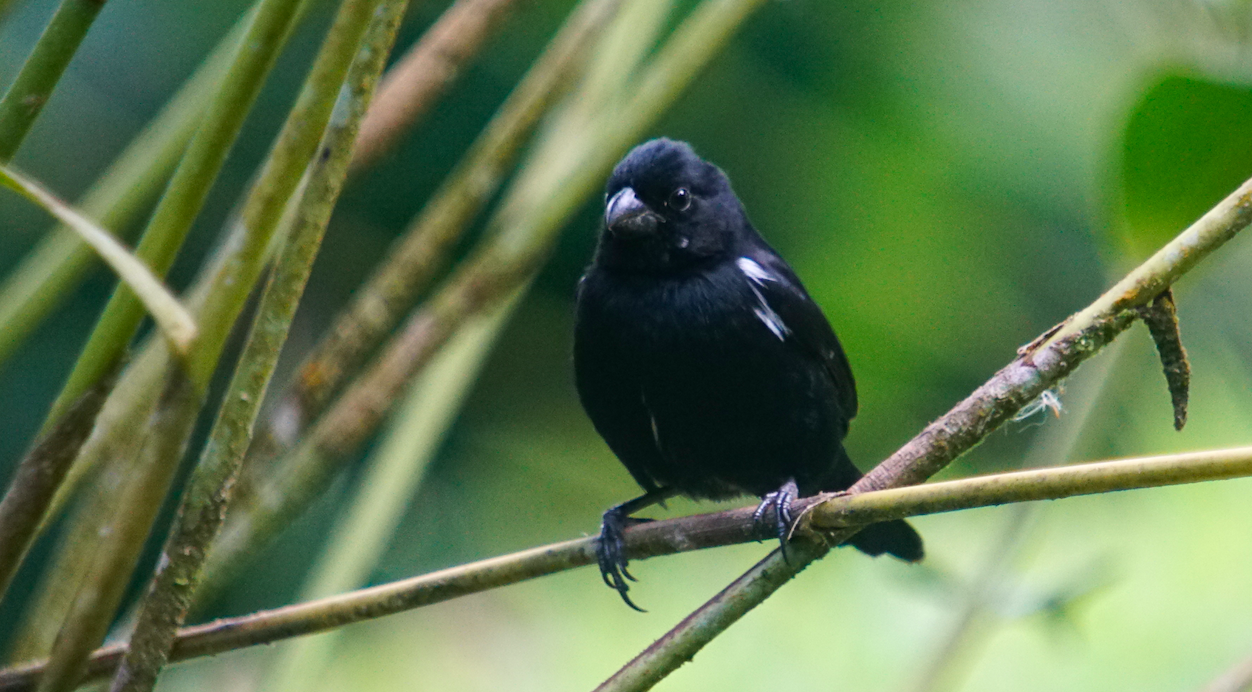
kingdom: Animalia
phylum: Chordata
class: Aves
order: Passeriformes
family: Thraupidae
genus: Sporophila
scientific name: Sporophila corvina
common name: Variable seedeater
